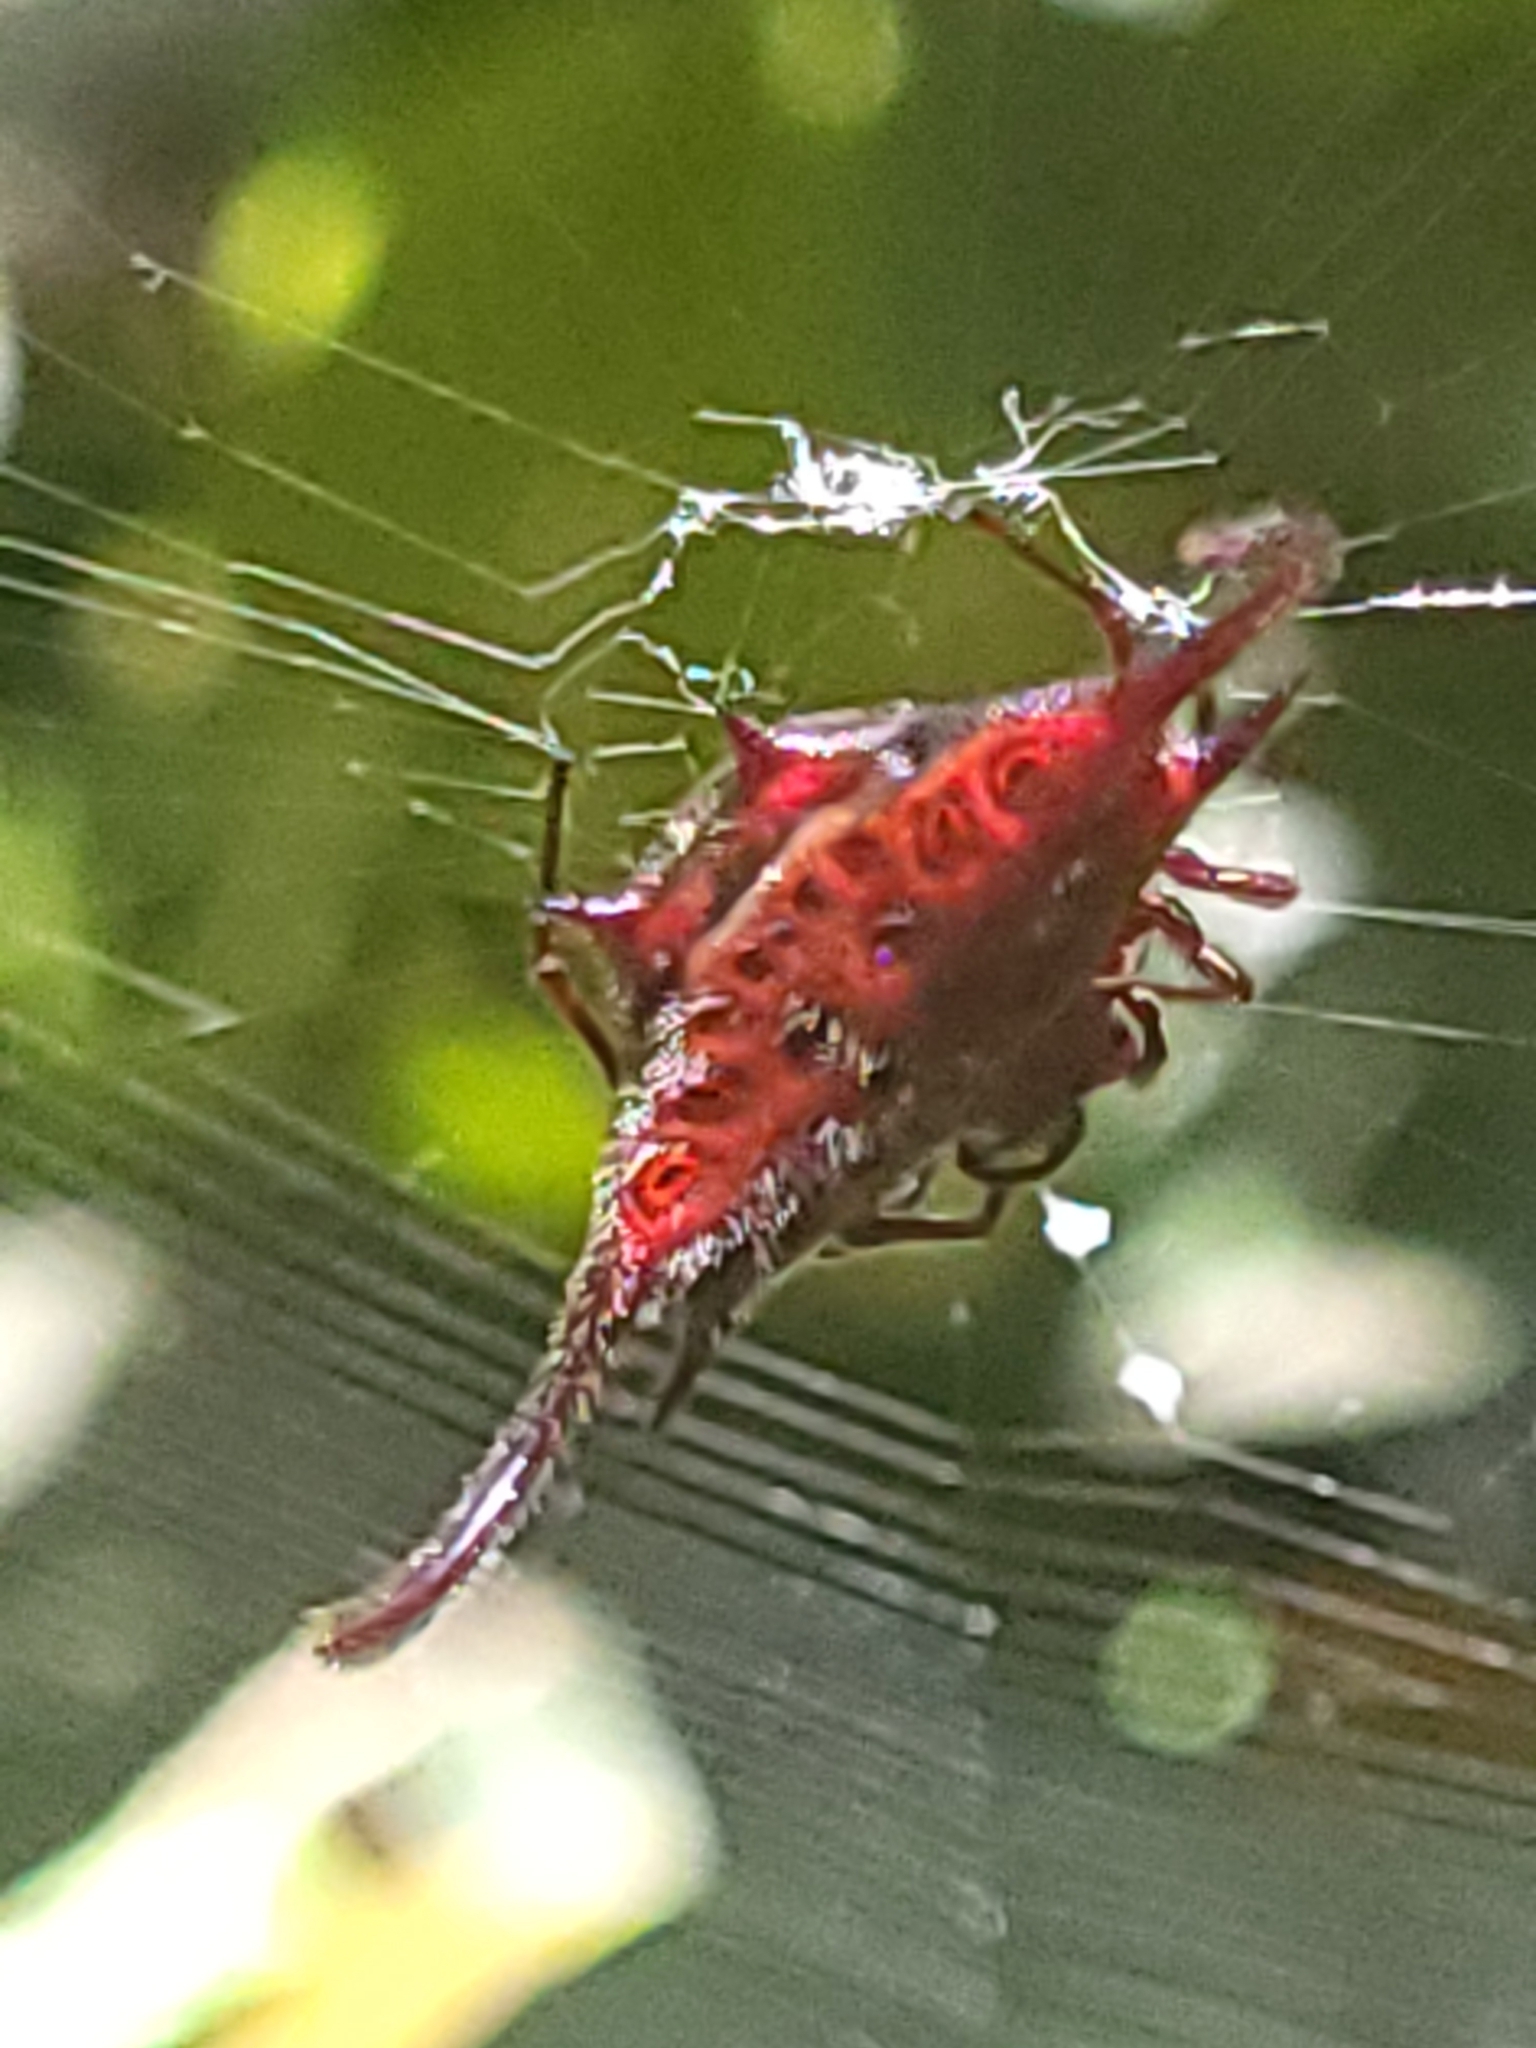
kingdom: Animalia
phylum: Arthropoda
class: Arachnida
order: Araneae
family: Araneidae
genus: Gasteracantha
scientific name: Gasteracantha falcicornis
